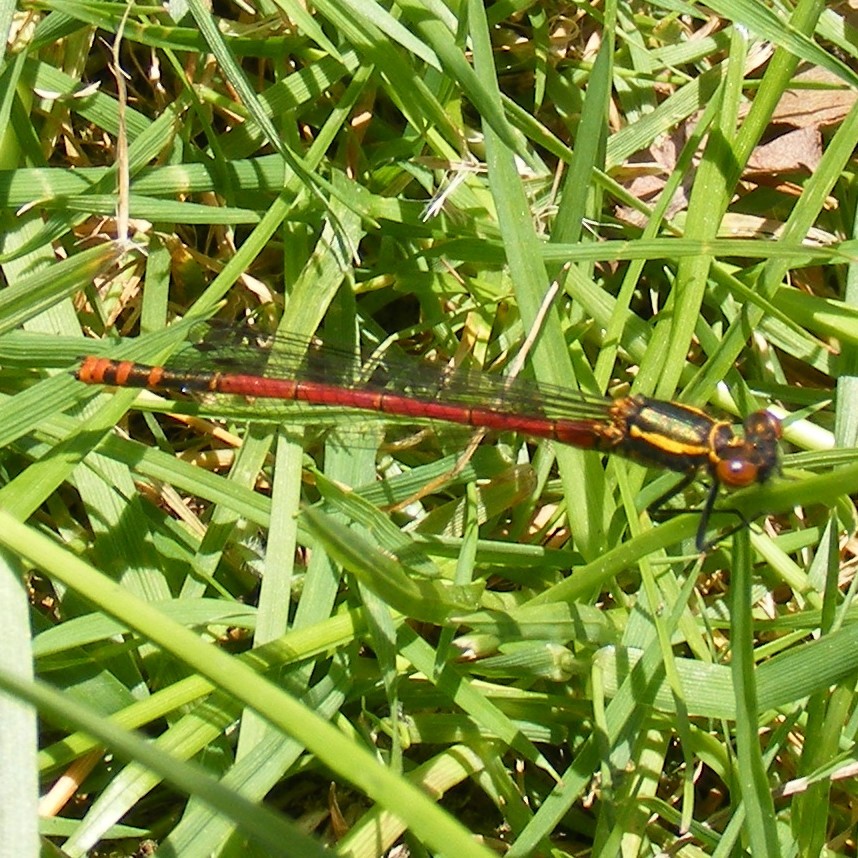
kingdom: Animalia
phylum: Arthropoda
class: Insecta
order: Odonata
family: Coenagrionidae
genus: Pyrrhosoma
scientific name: Pyrrhosoma nymphula
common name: Large red damsel
